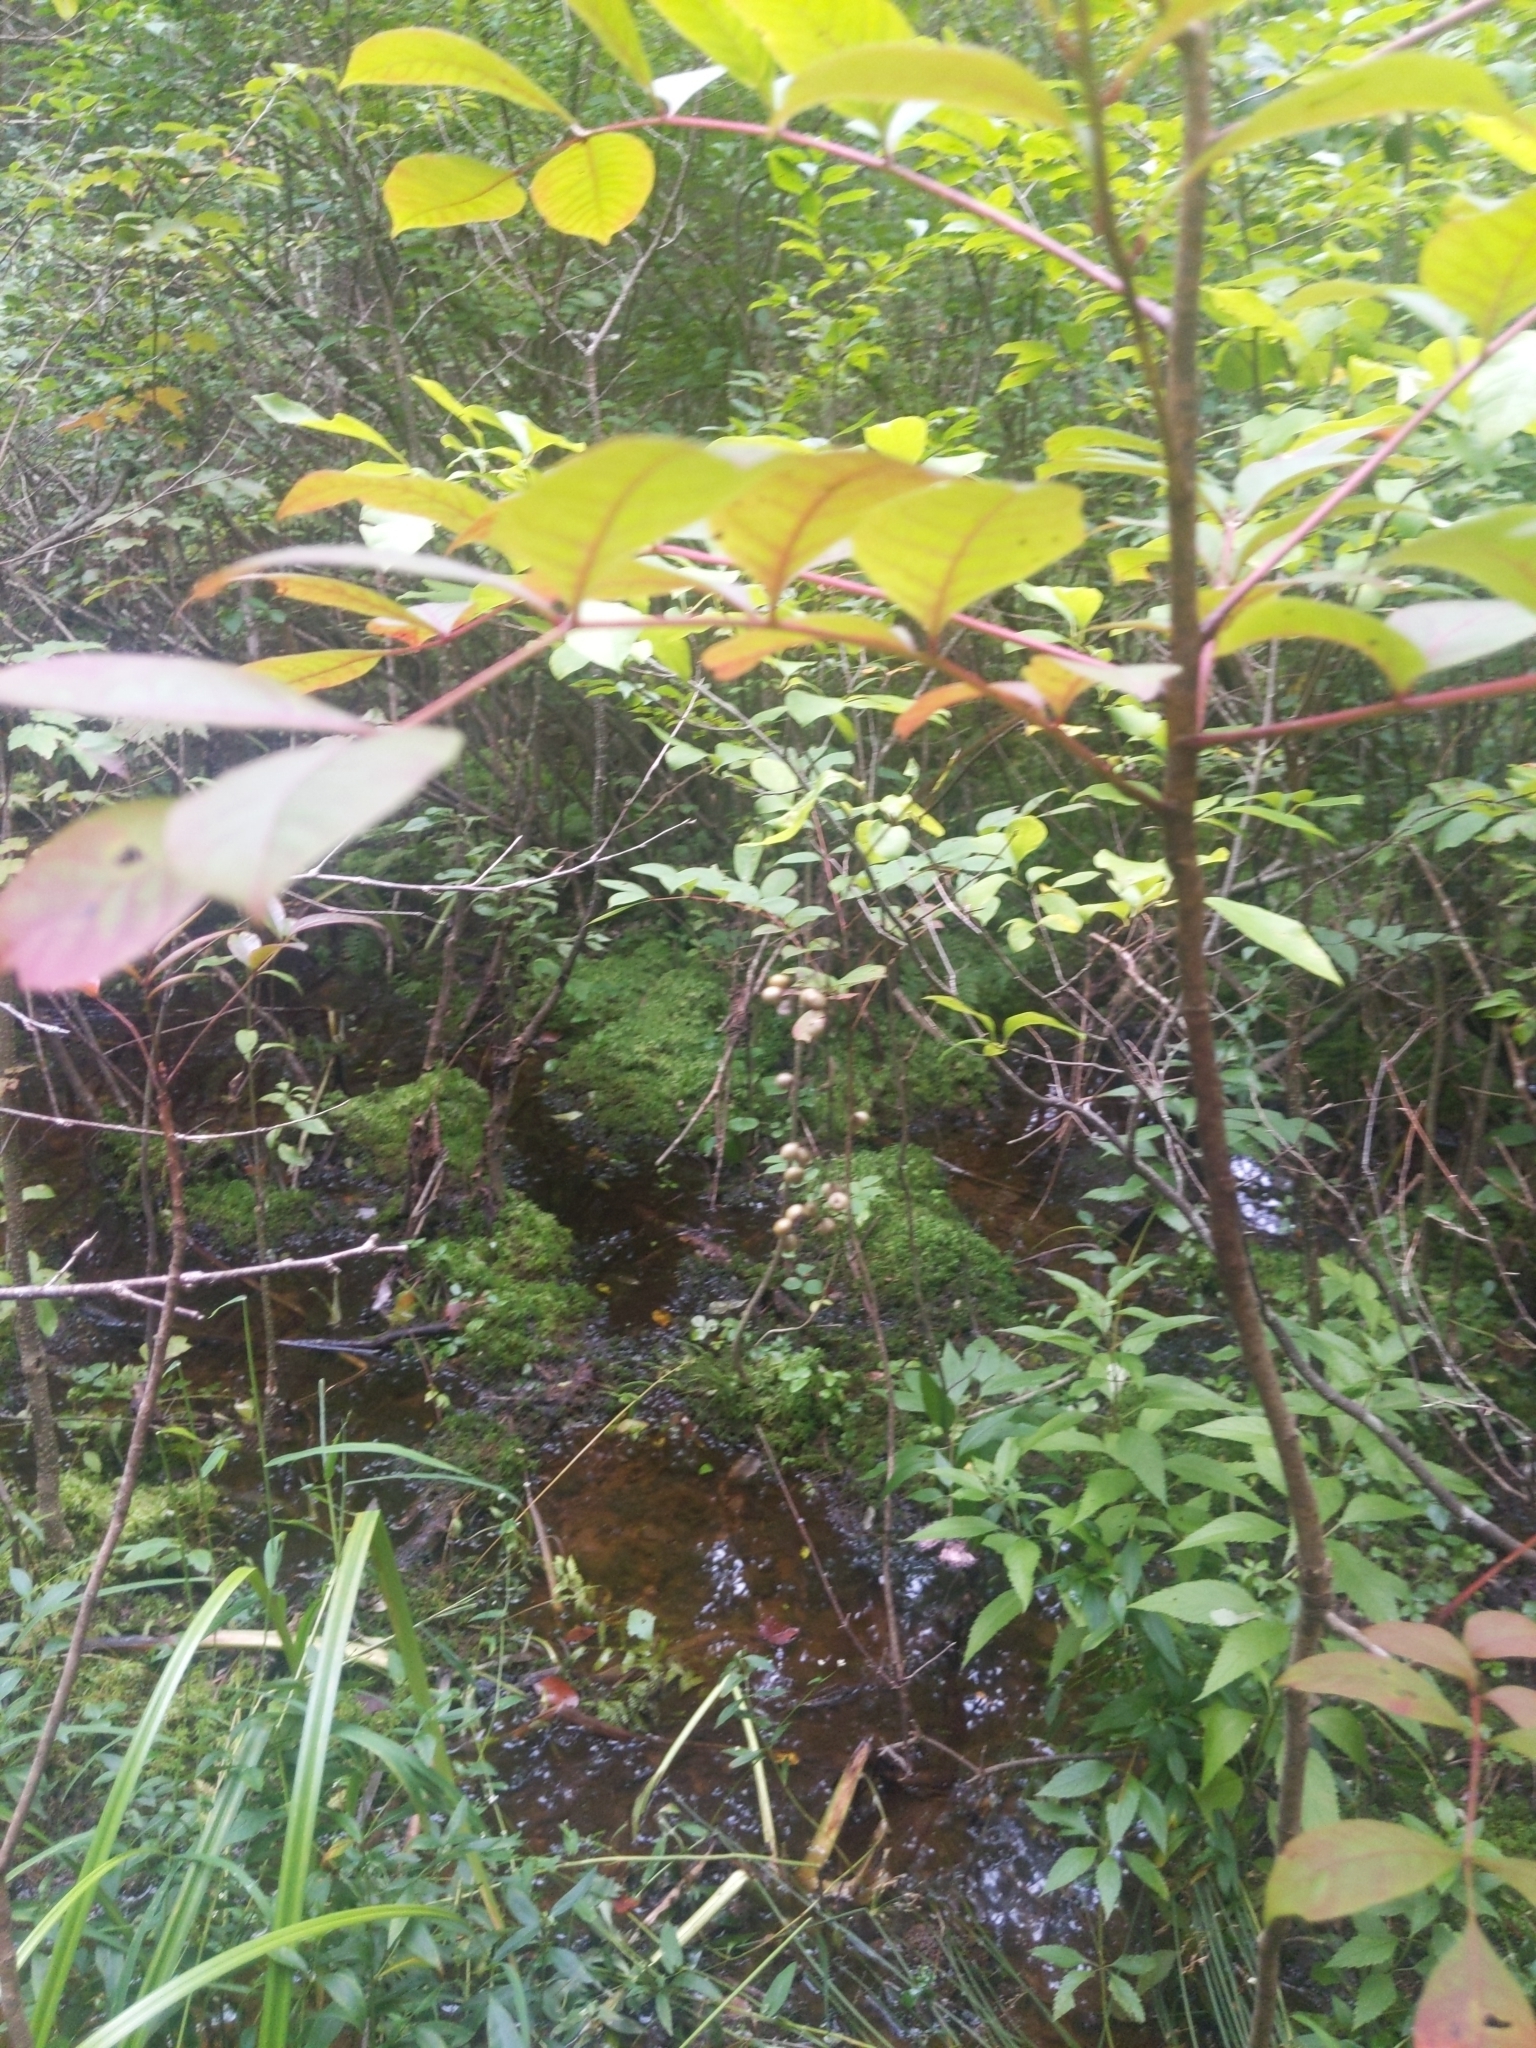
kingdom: Plantae
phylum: Tracheophyta
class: Magnoliopsida
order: Sapindales
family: Anacardiaceae
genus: Toxicodendron
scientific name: Toxicodendron vernix
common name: Poison sumac
